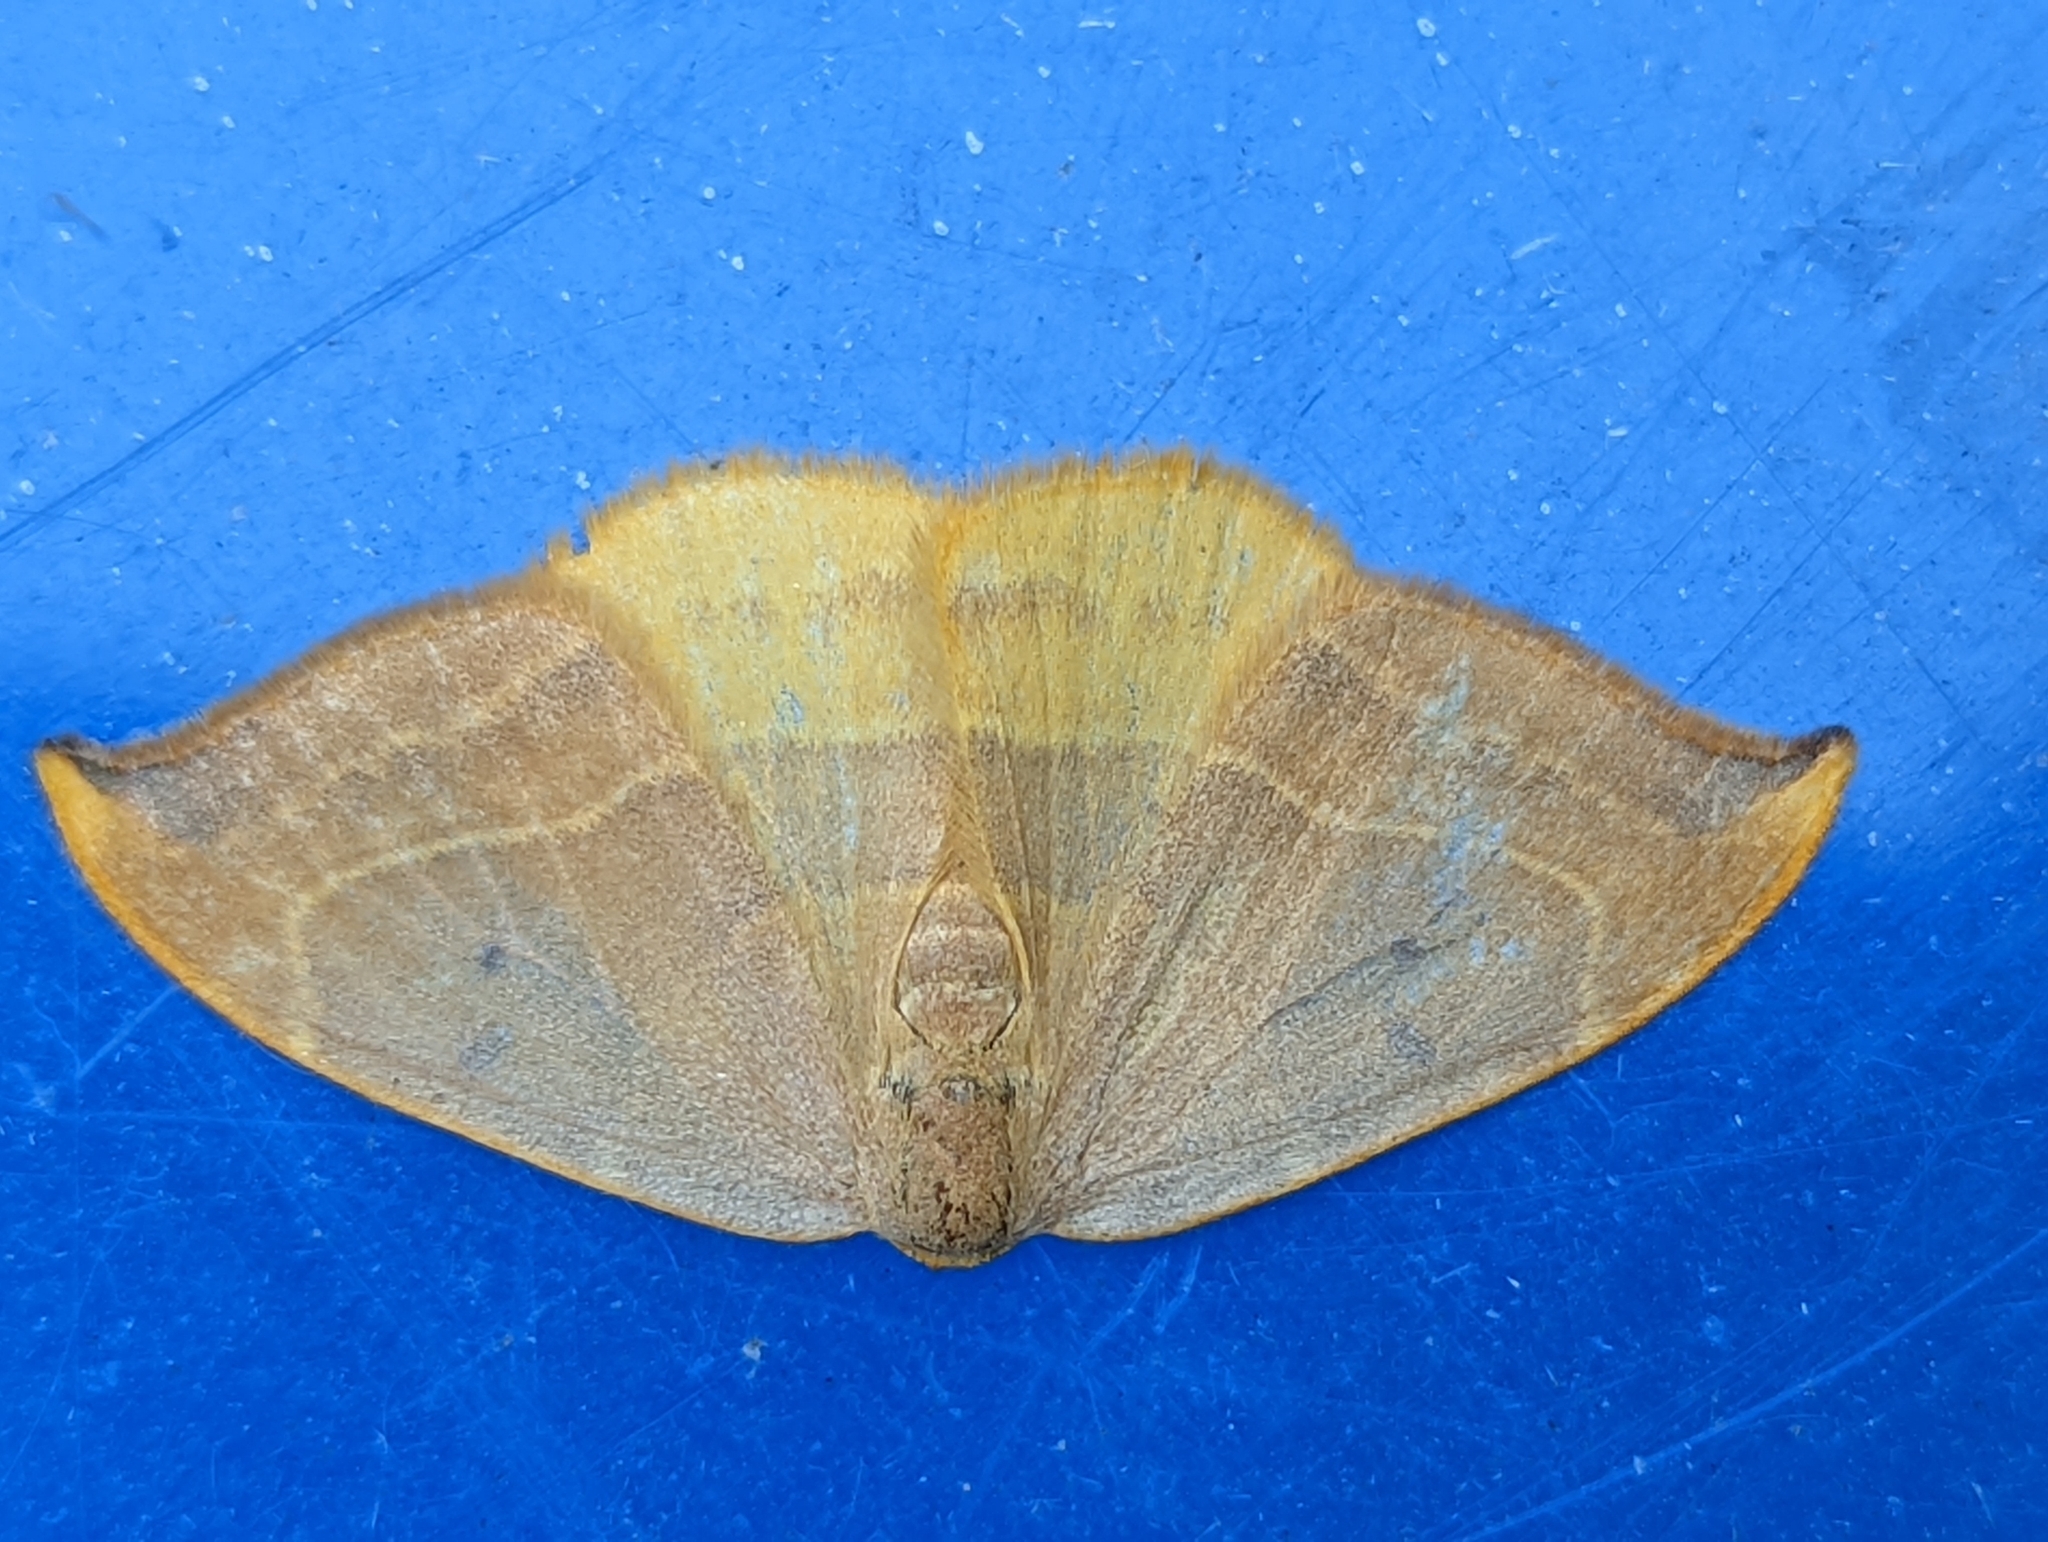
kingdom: Animalia
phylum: Arthropoda
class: Insecta
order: Lepidoptera
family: Drepanidae
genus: Watsonalla
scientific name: Watsonalla binaria
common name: Oak hook-tip
